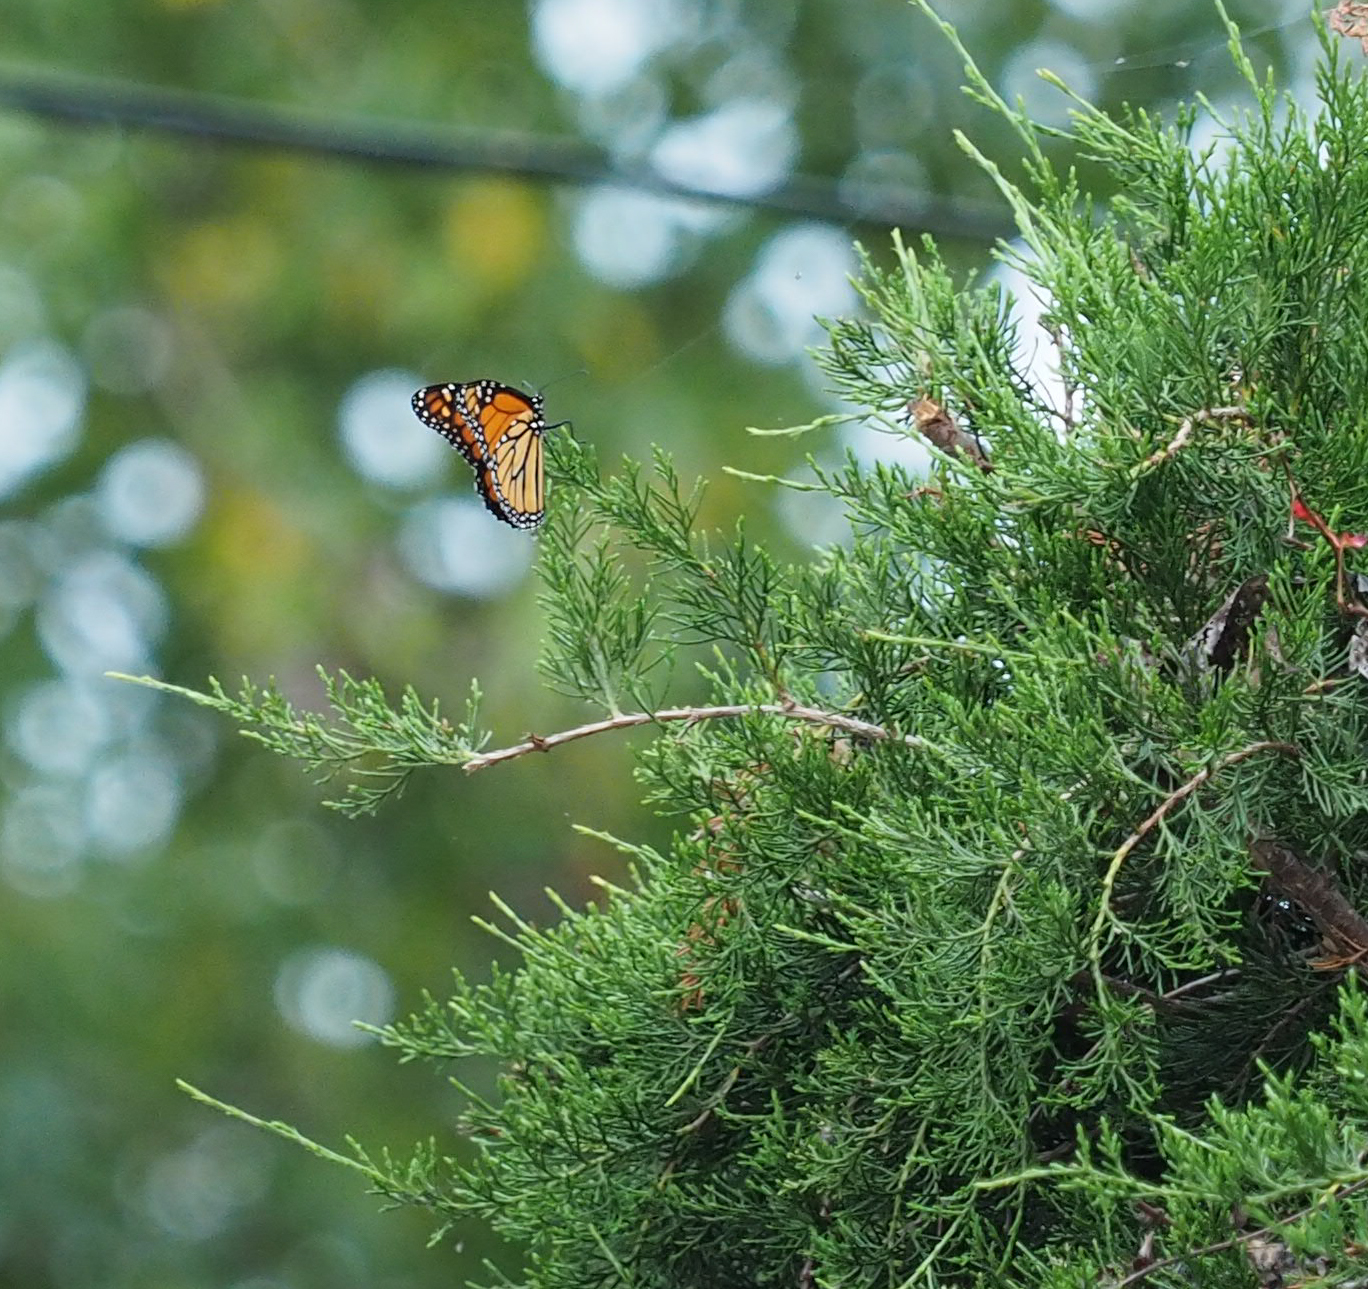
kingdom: Animalia
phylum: Arthropoda
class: Insecta
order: Lepidoptera
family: Nymphalidae
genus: Danaus
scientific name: Danaus plexippus
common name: Monarch
